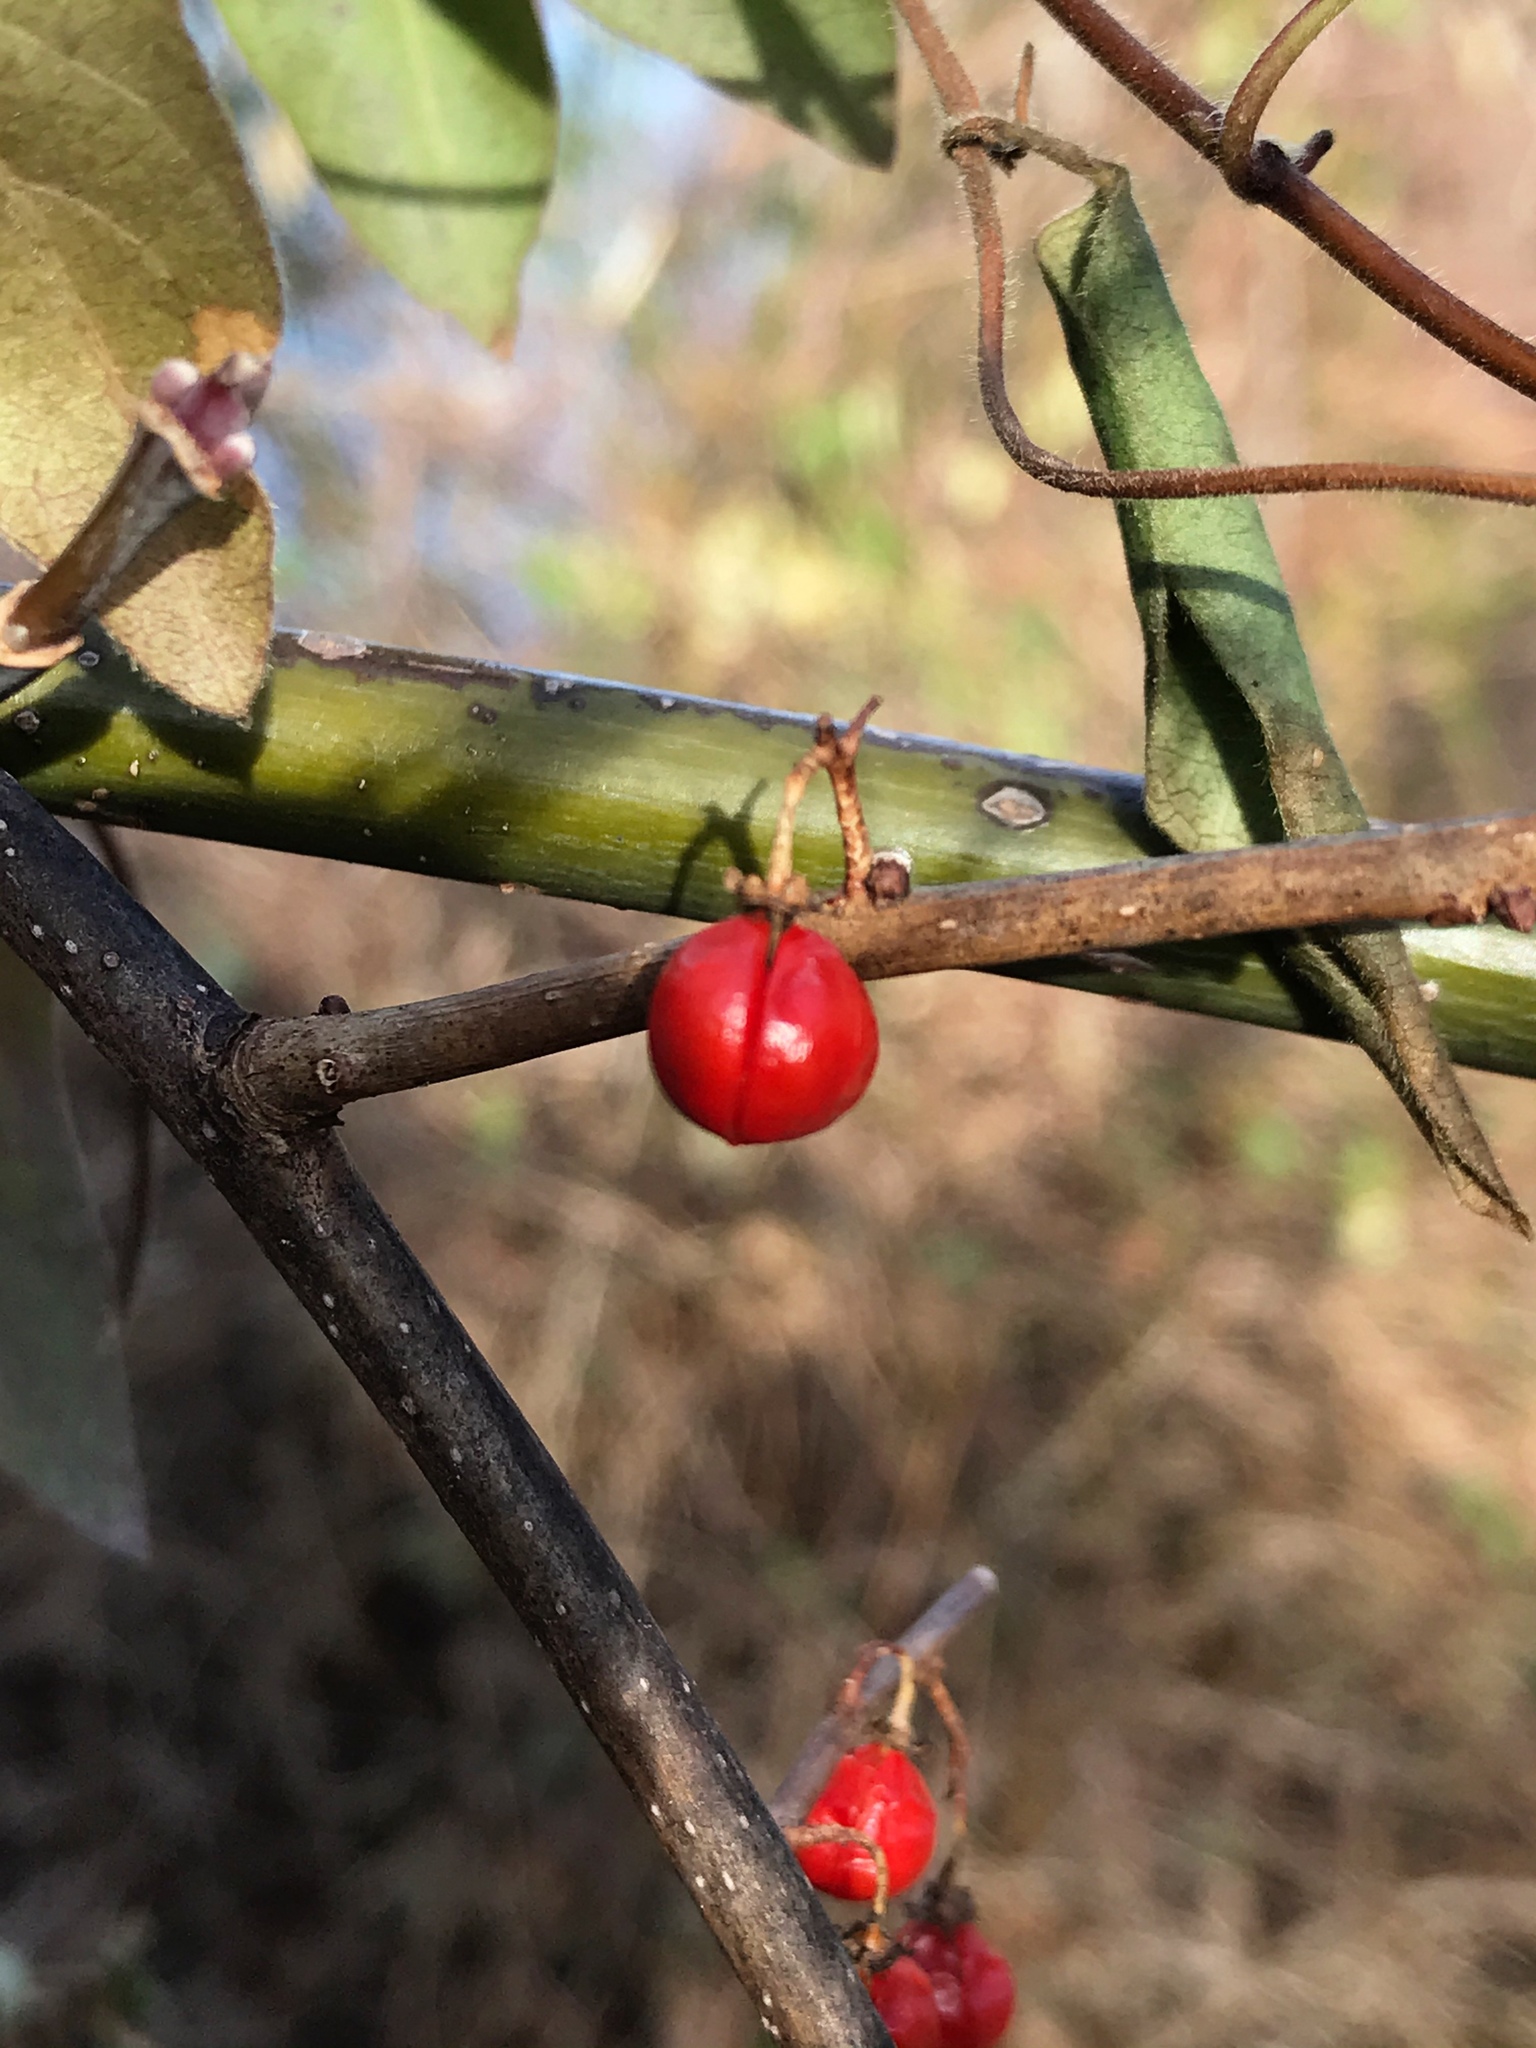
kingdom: Plantae
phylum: Tracheophyta
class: Magnoliopsida
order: Celastrales
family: Celastraceae
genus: Celastrus
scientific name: Celastrus orbiculatus
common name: Oriental bittersweet
